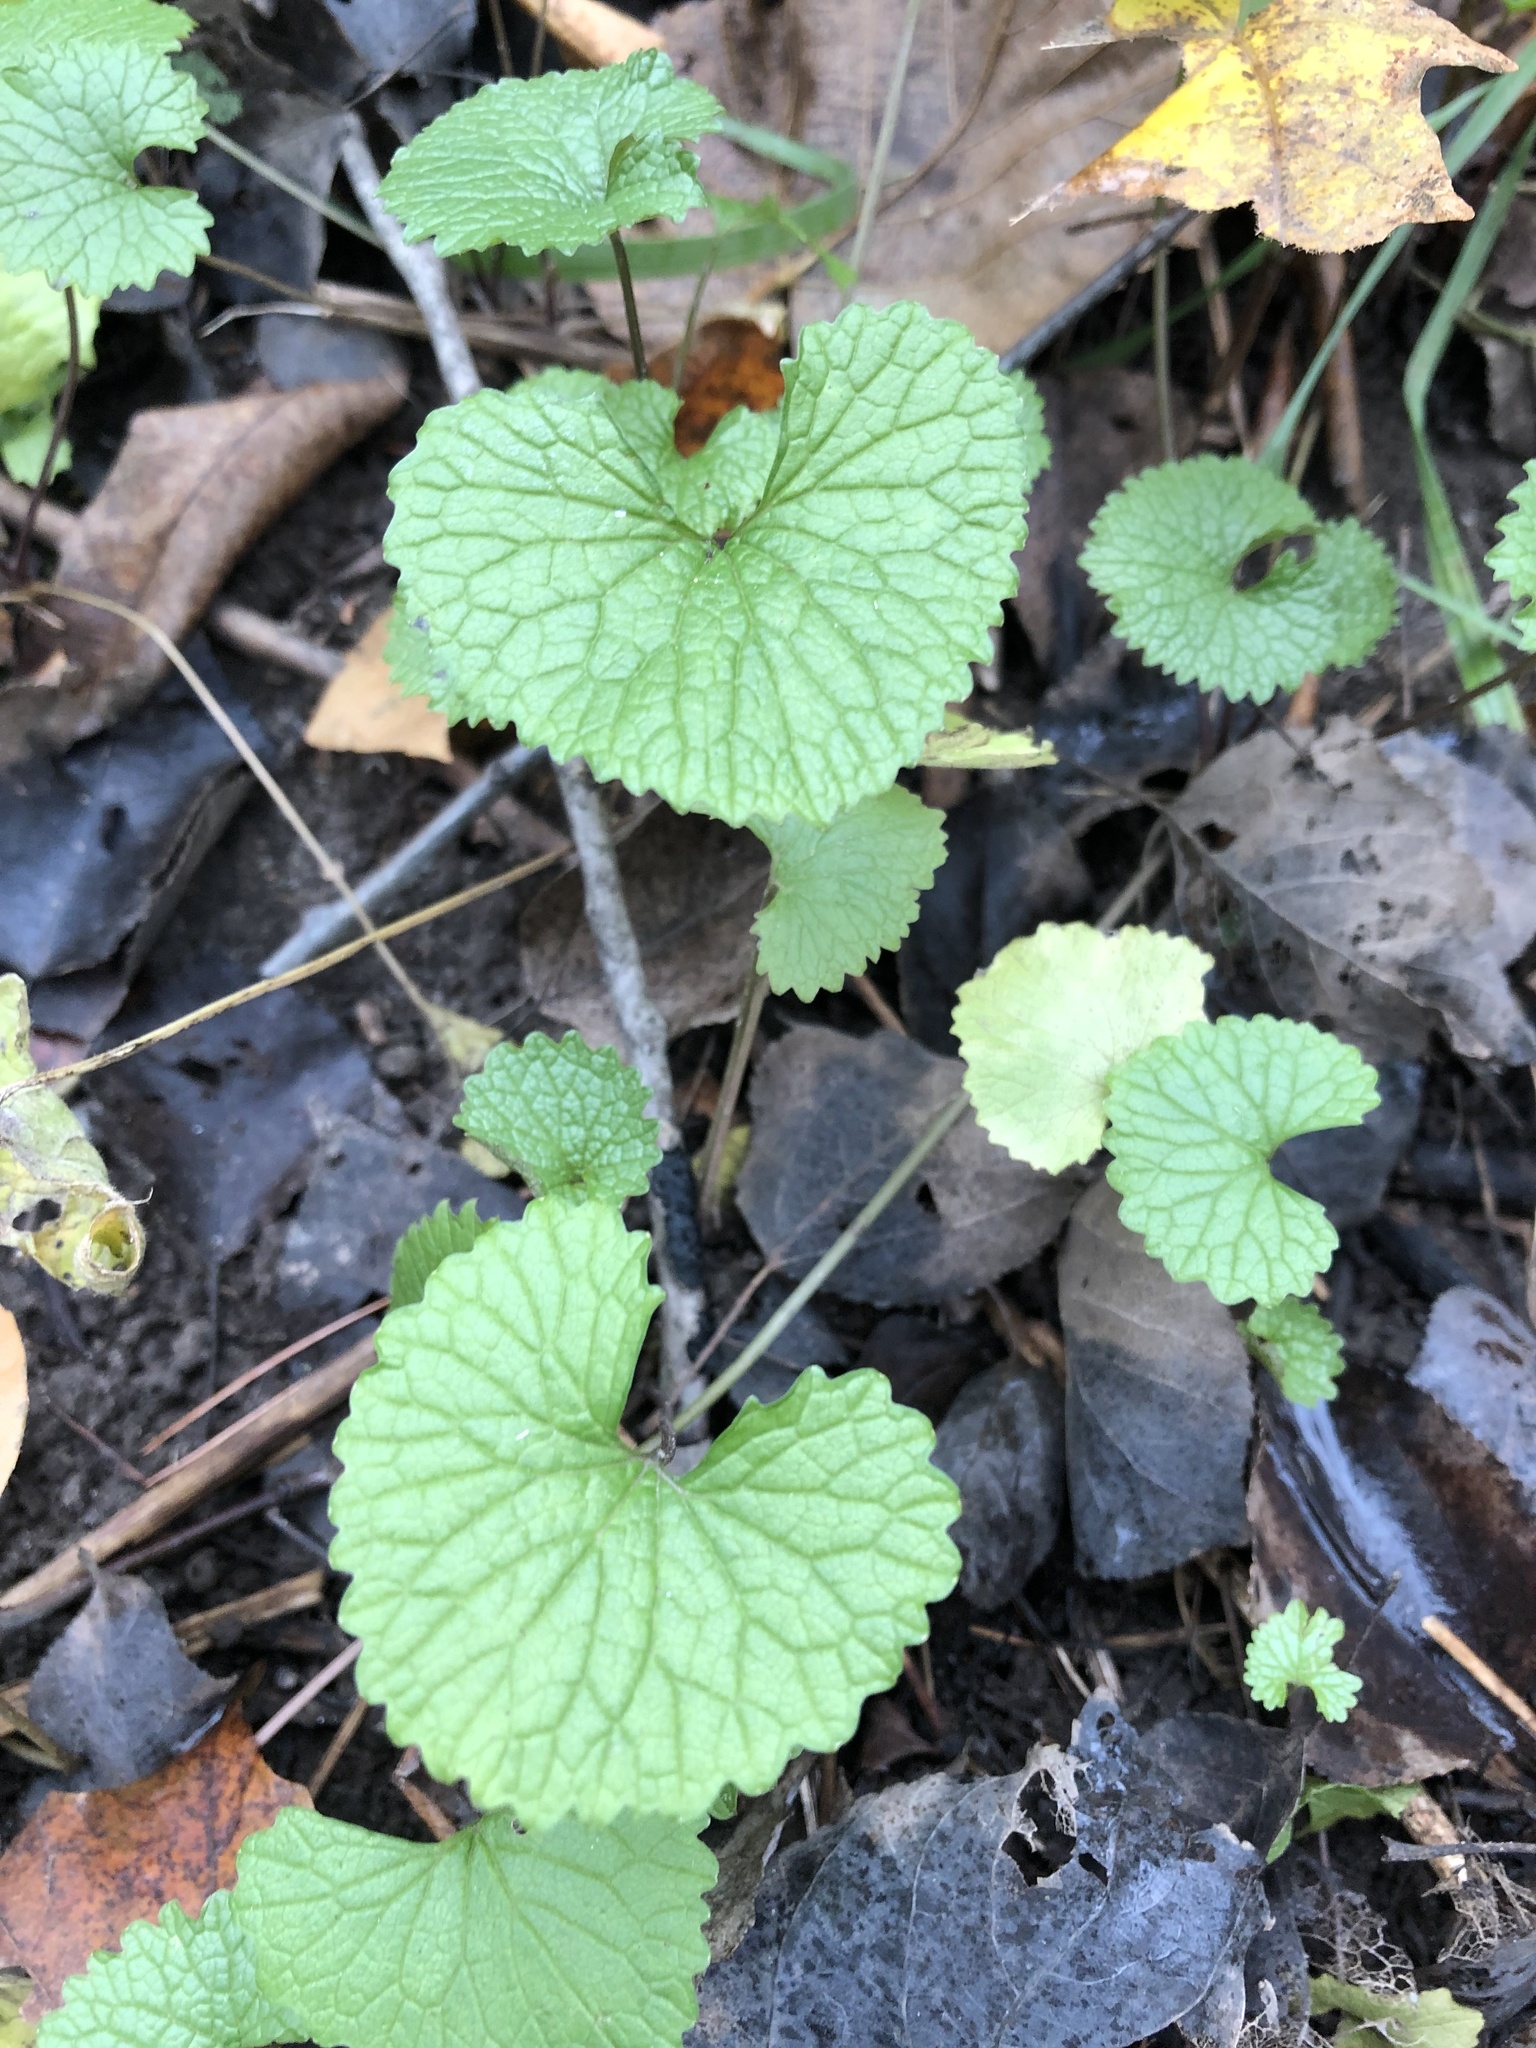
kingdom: Plantae
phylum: Tracheophyta
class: Magnoliopsida
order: Brassicales
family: Brassicaceae
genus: Alliaria
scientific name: Alliaria petiolata
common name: Garlic mustard
